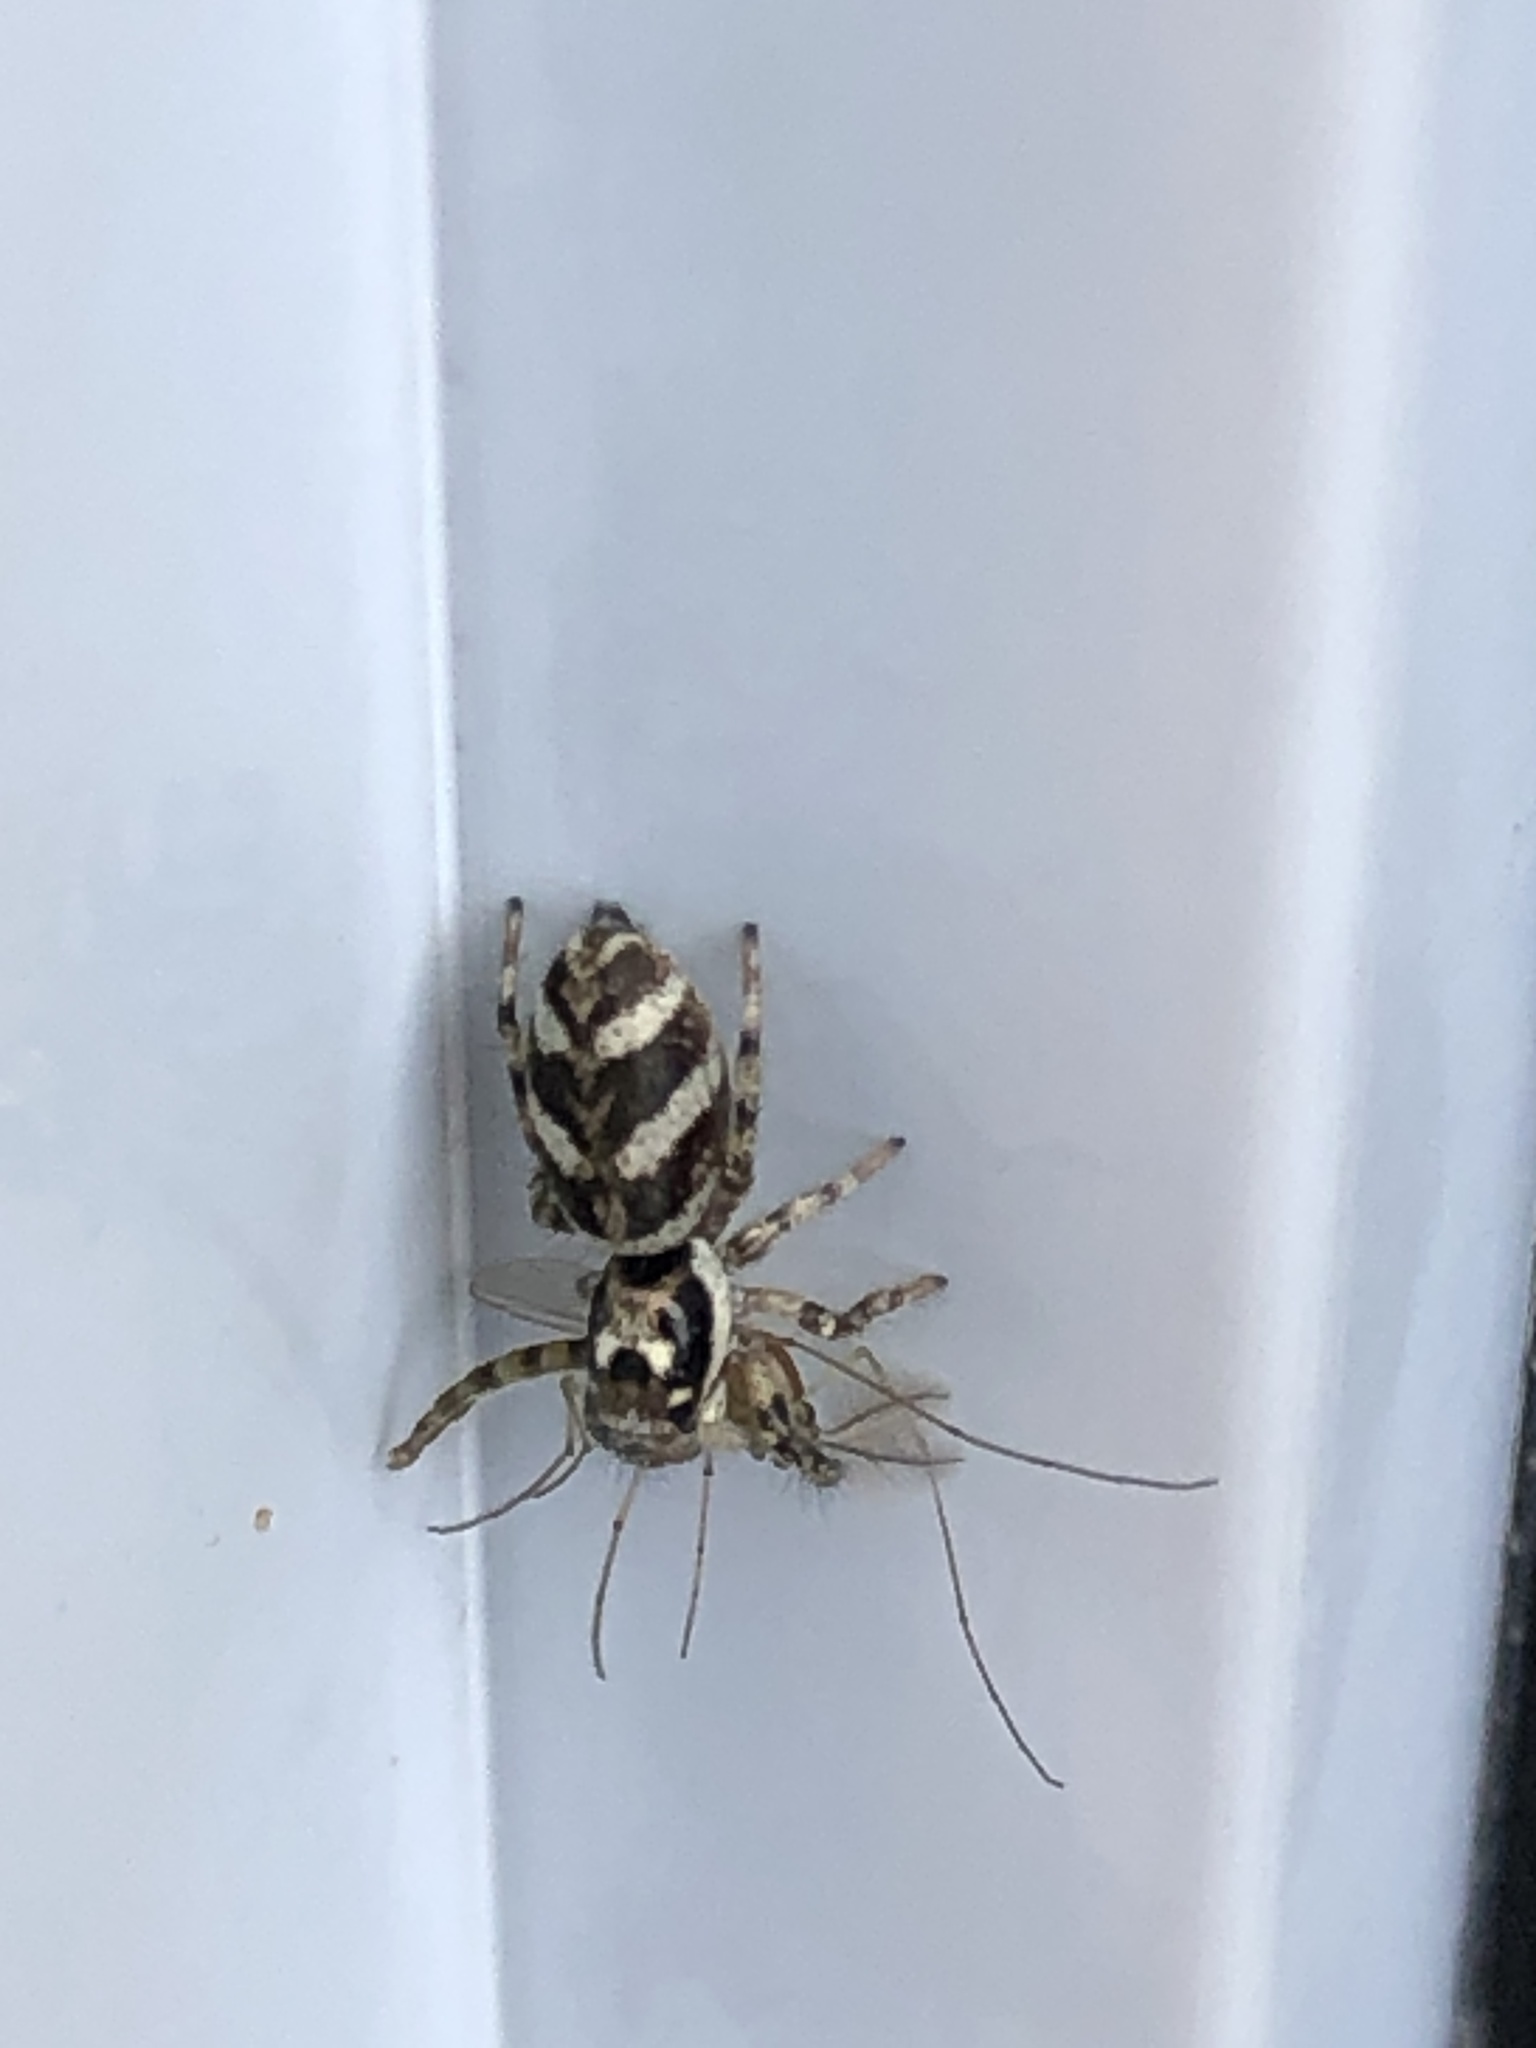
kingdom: Animalia
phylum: Arthropoda
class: Arachnida
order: Araneae
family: Salticidae
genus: Salticus
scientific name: Salticus scenicus
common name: Zebra jumper
